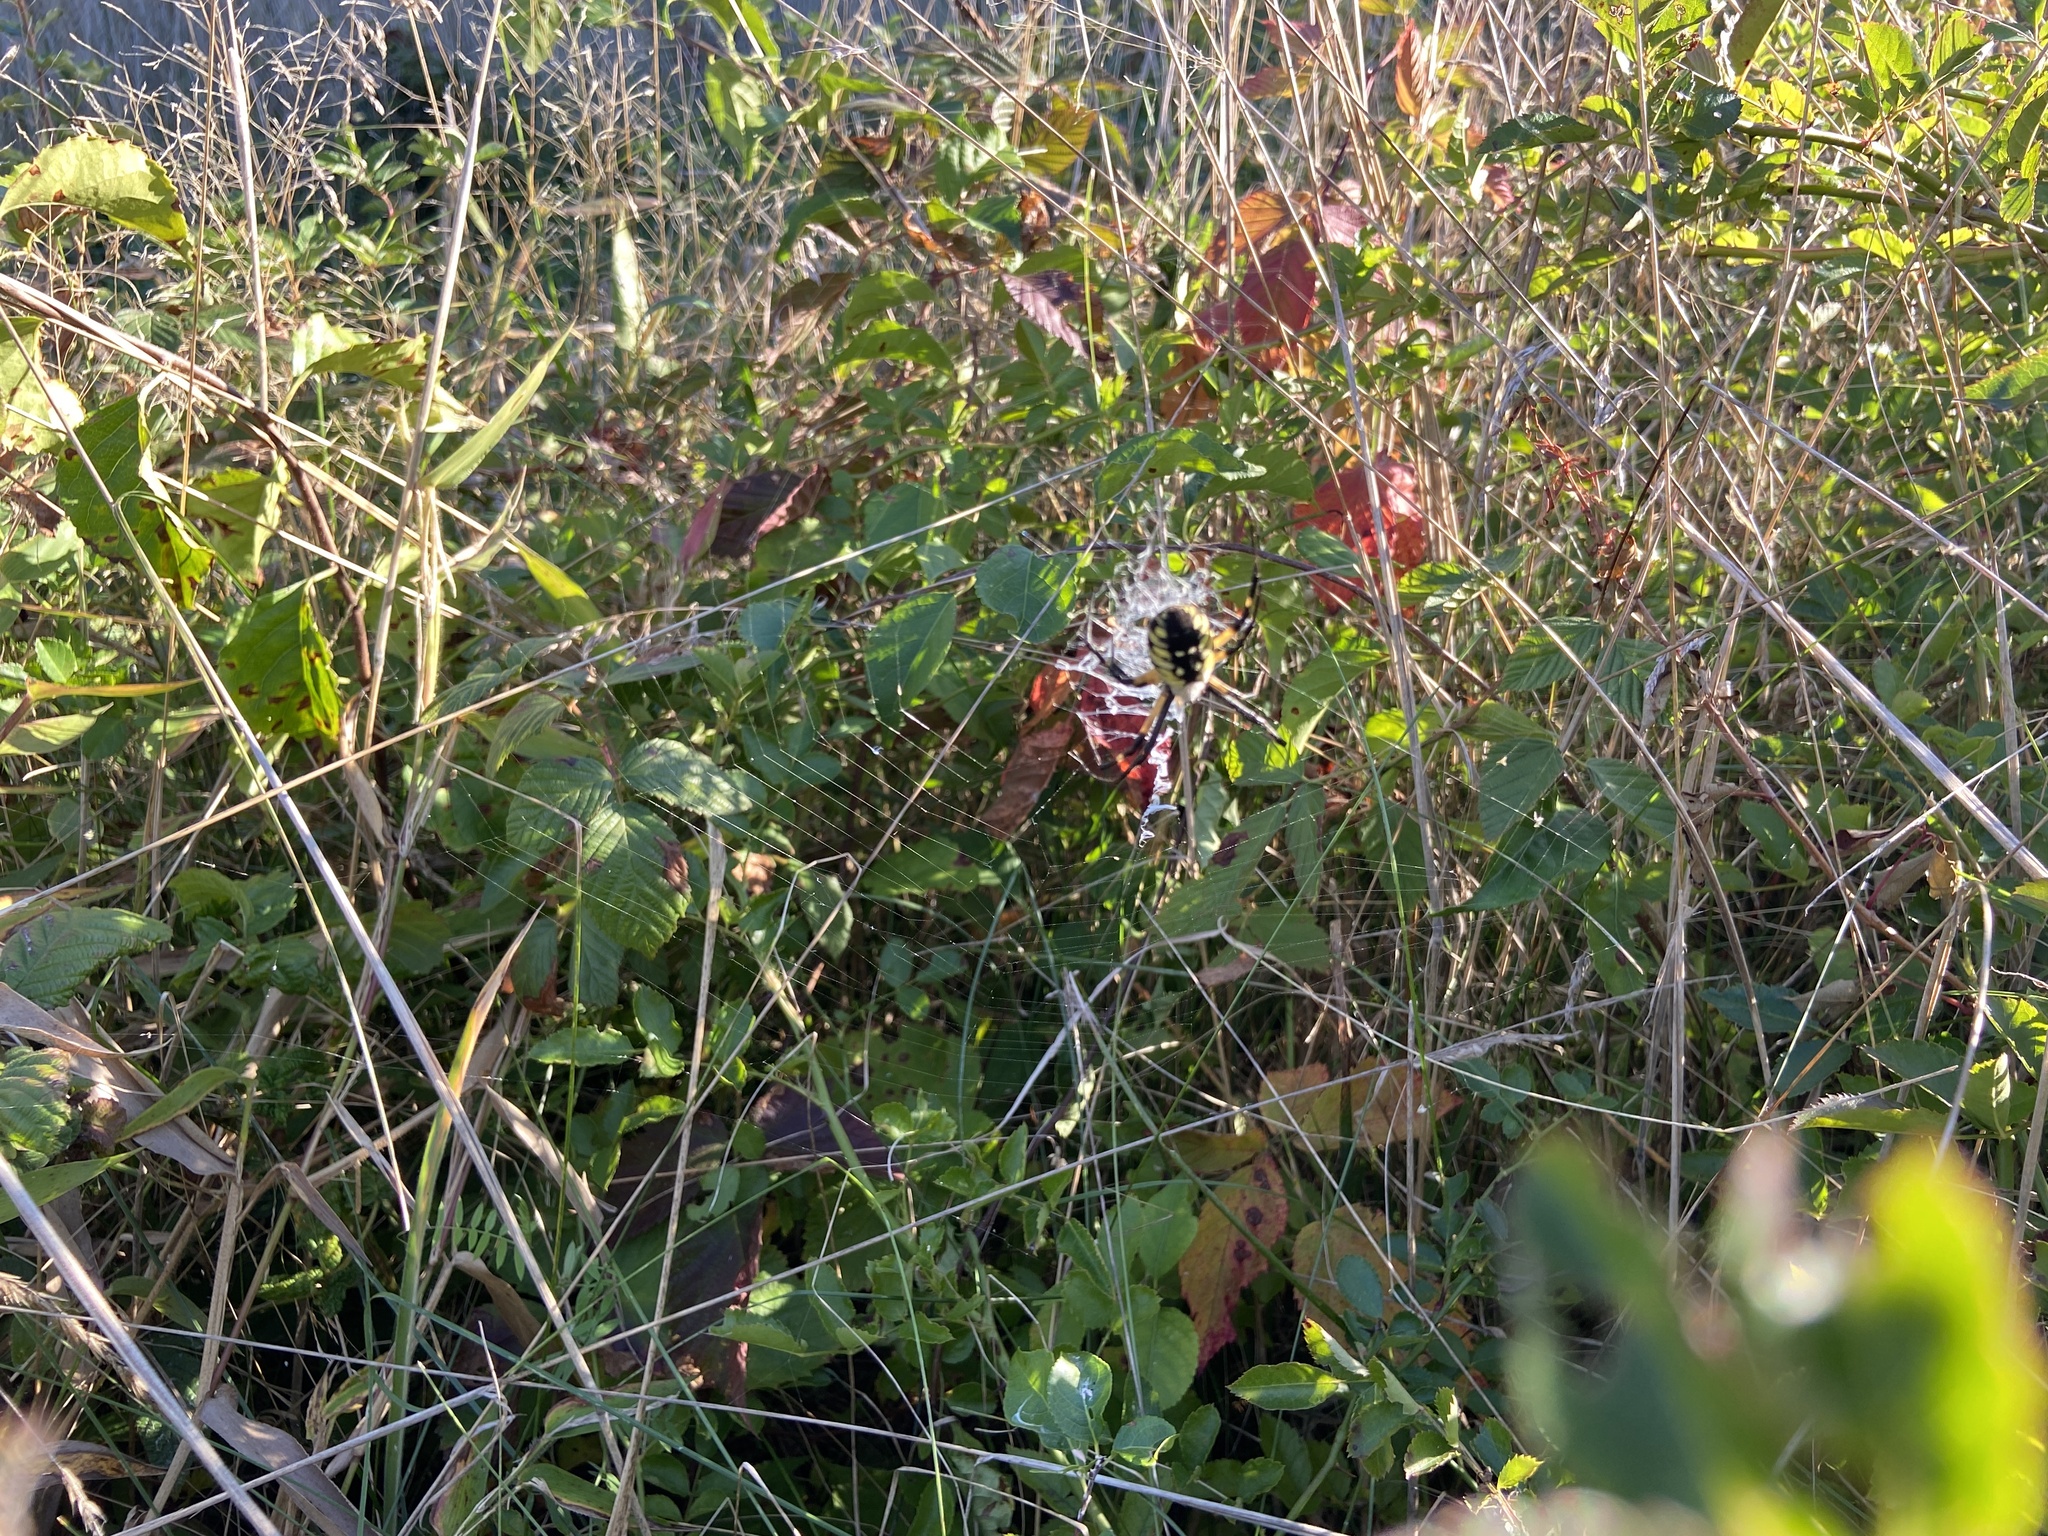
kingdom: Animalia
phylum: Arthropoda
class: Arachnida
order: Araneae
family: Araneidae
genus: Argiope
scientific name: Argiope aurantia
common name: Orb weavers
